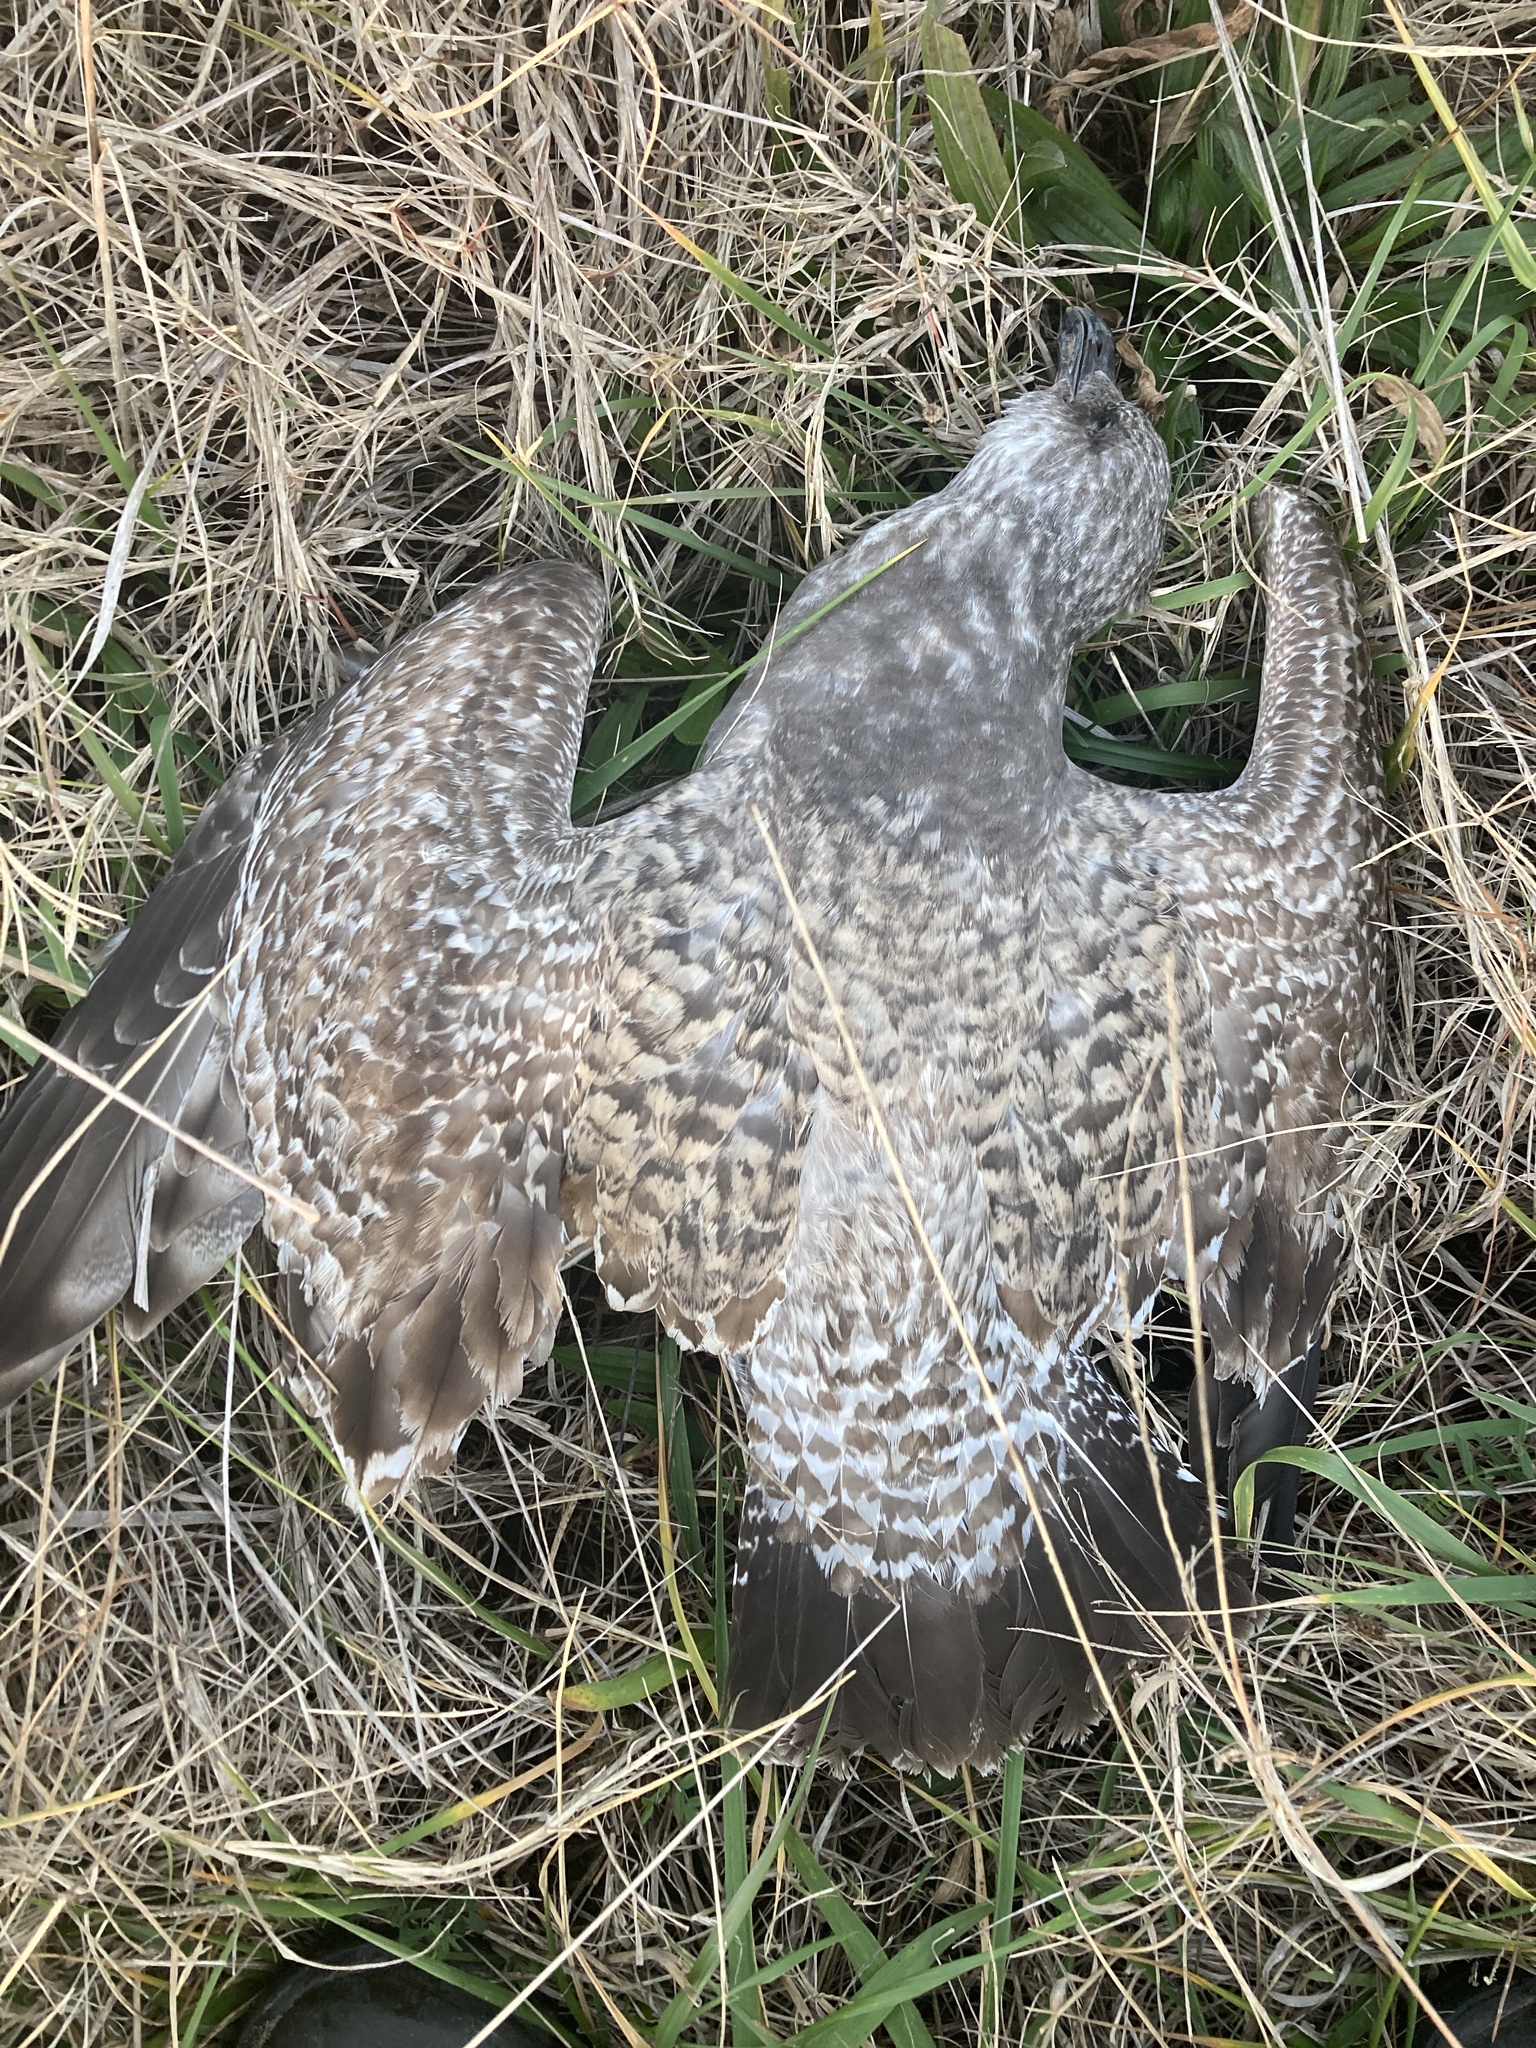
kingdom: Animalia
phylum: Chordata
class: Aves
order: Charadriiformes
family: Laridae
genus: Larus
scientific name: Larus argentatus
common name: Herring gull
